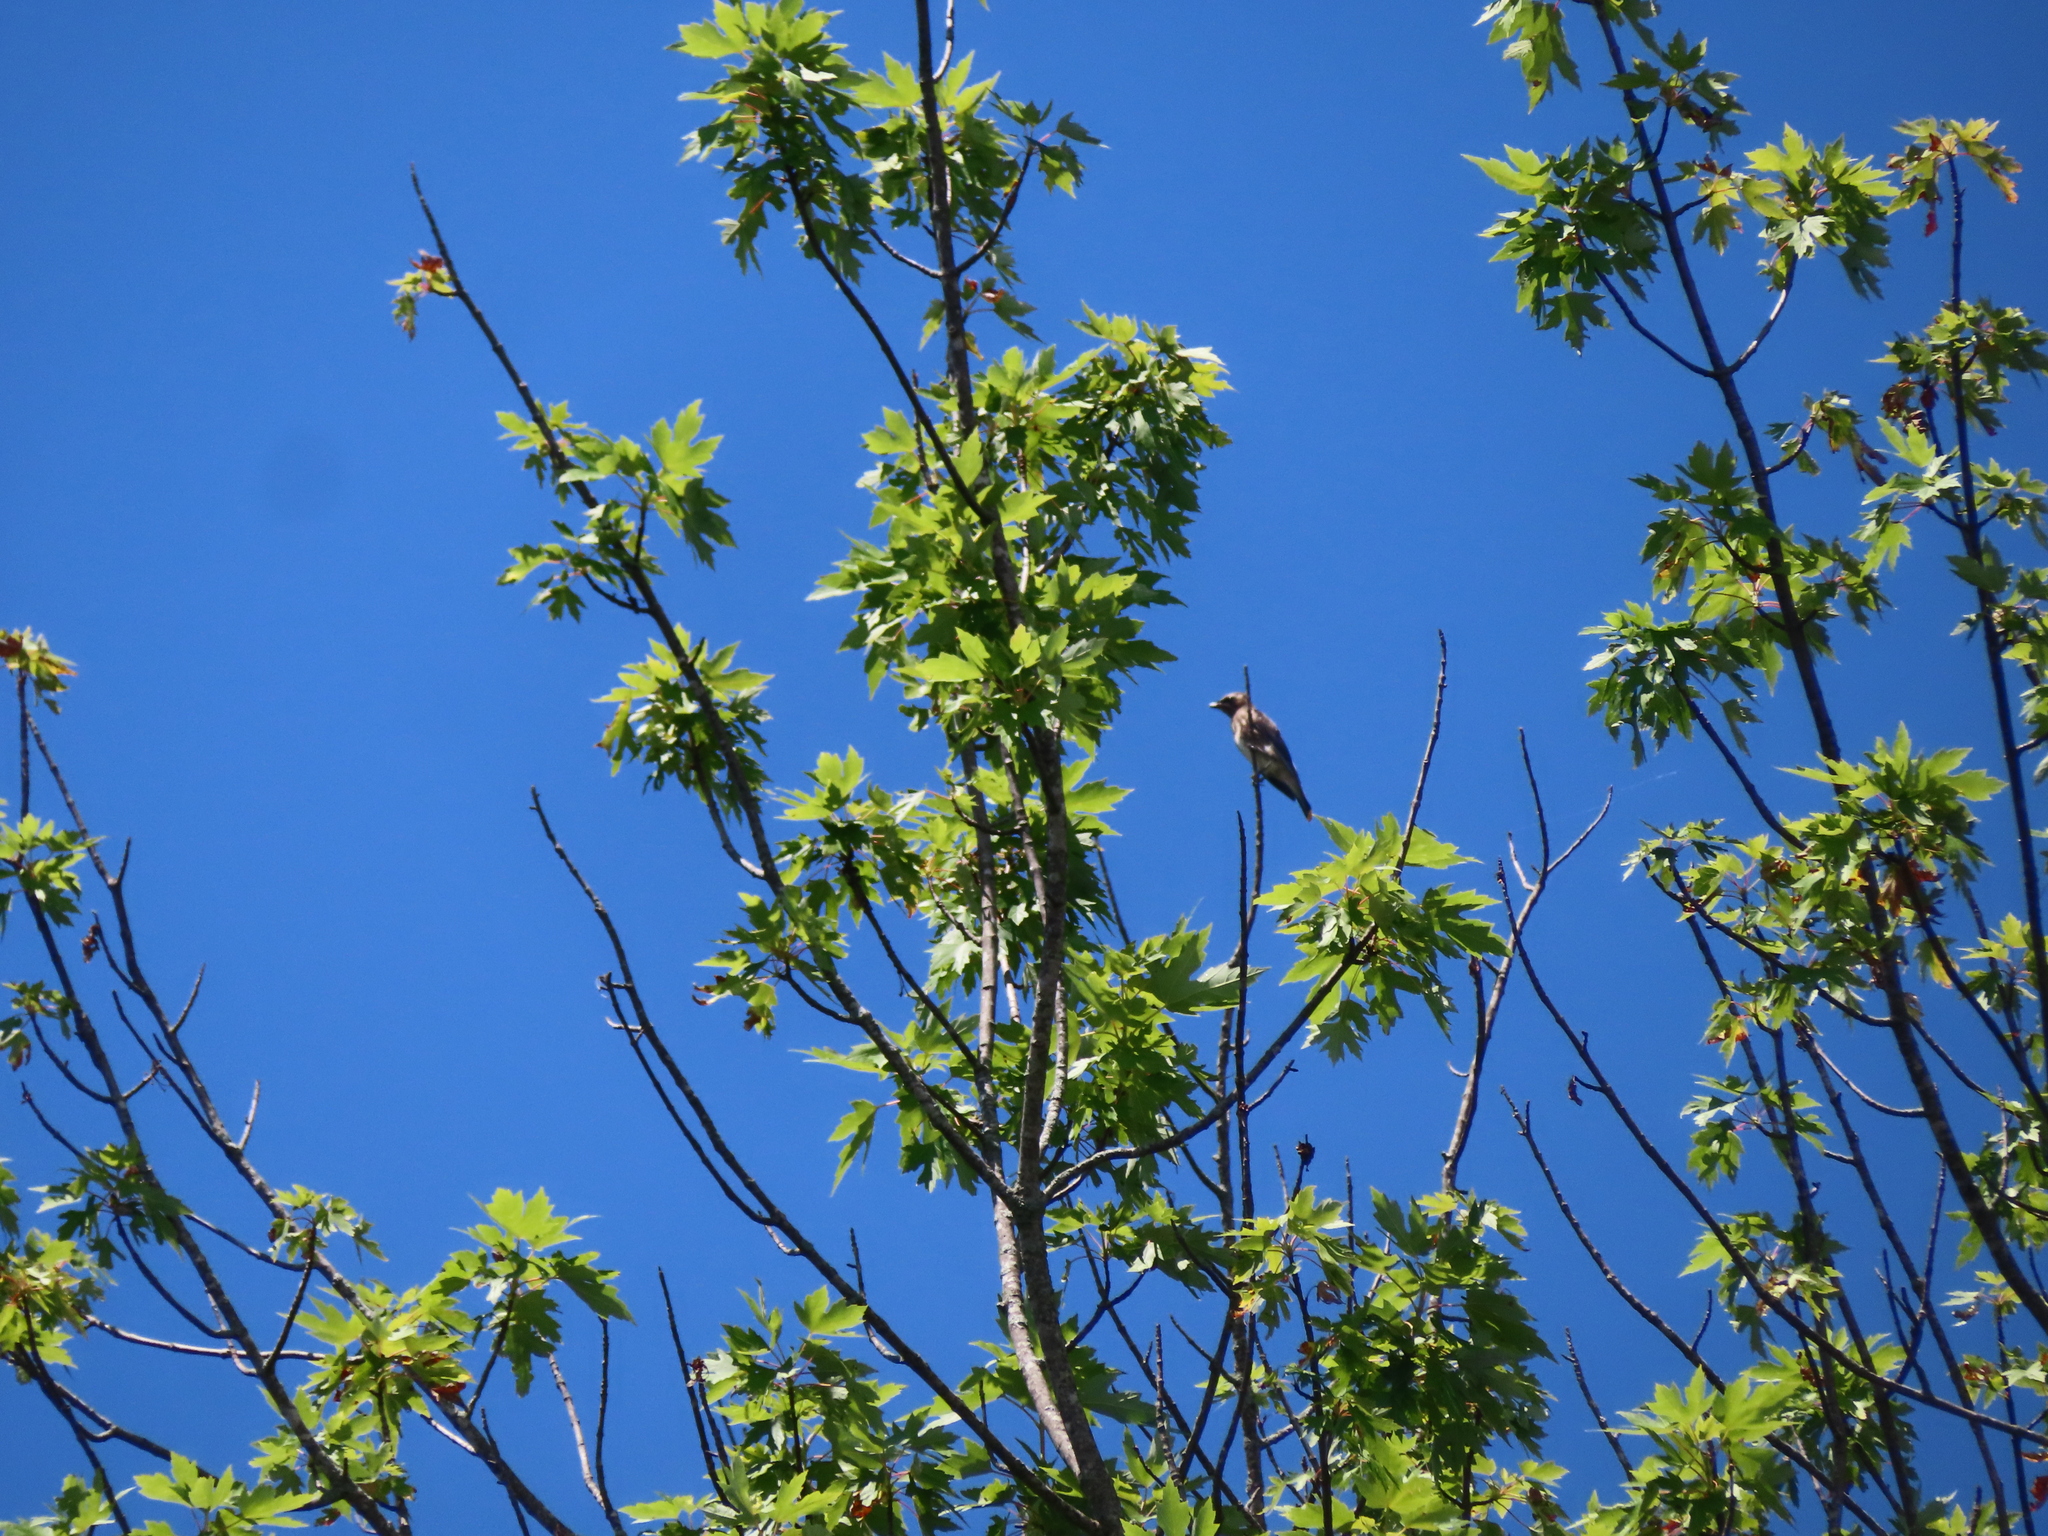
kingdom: Animalia
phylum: Chordata
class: Aves
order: Passeriformes
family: Bombycillidae
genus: Bombycilla
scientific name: Bombycilla cedrorum
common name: Cedar waxwing
